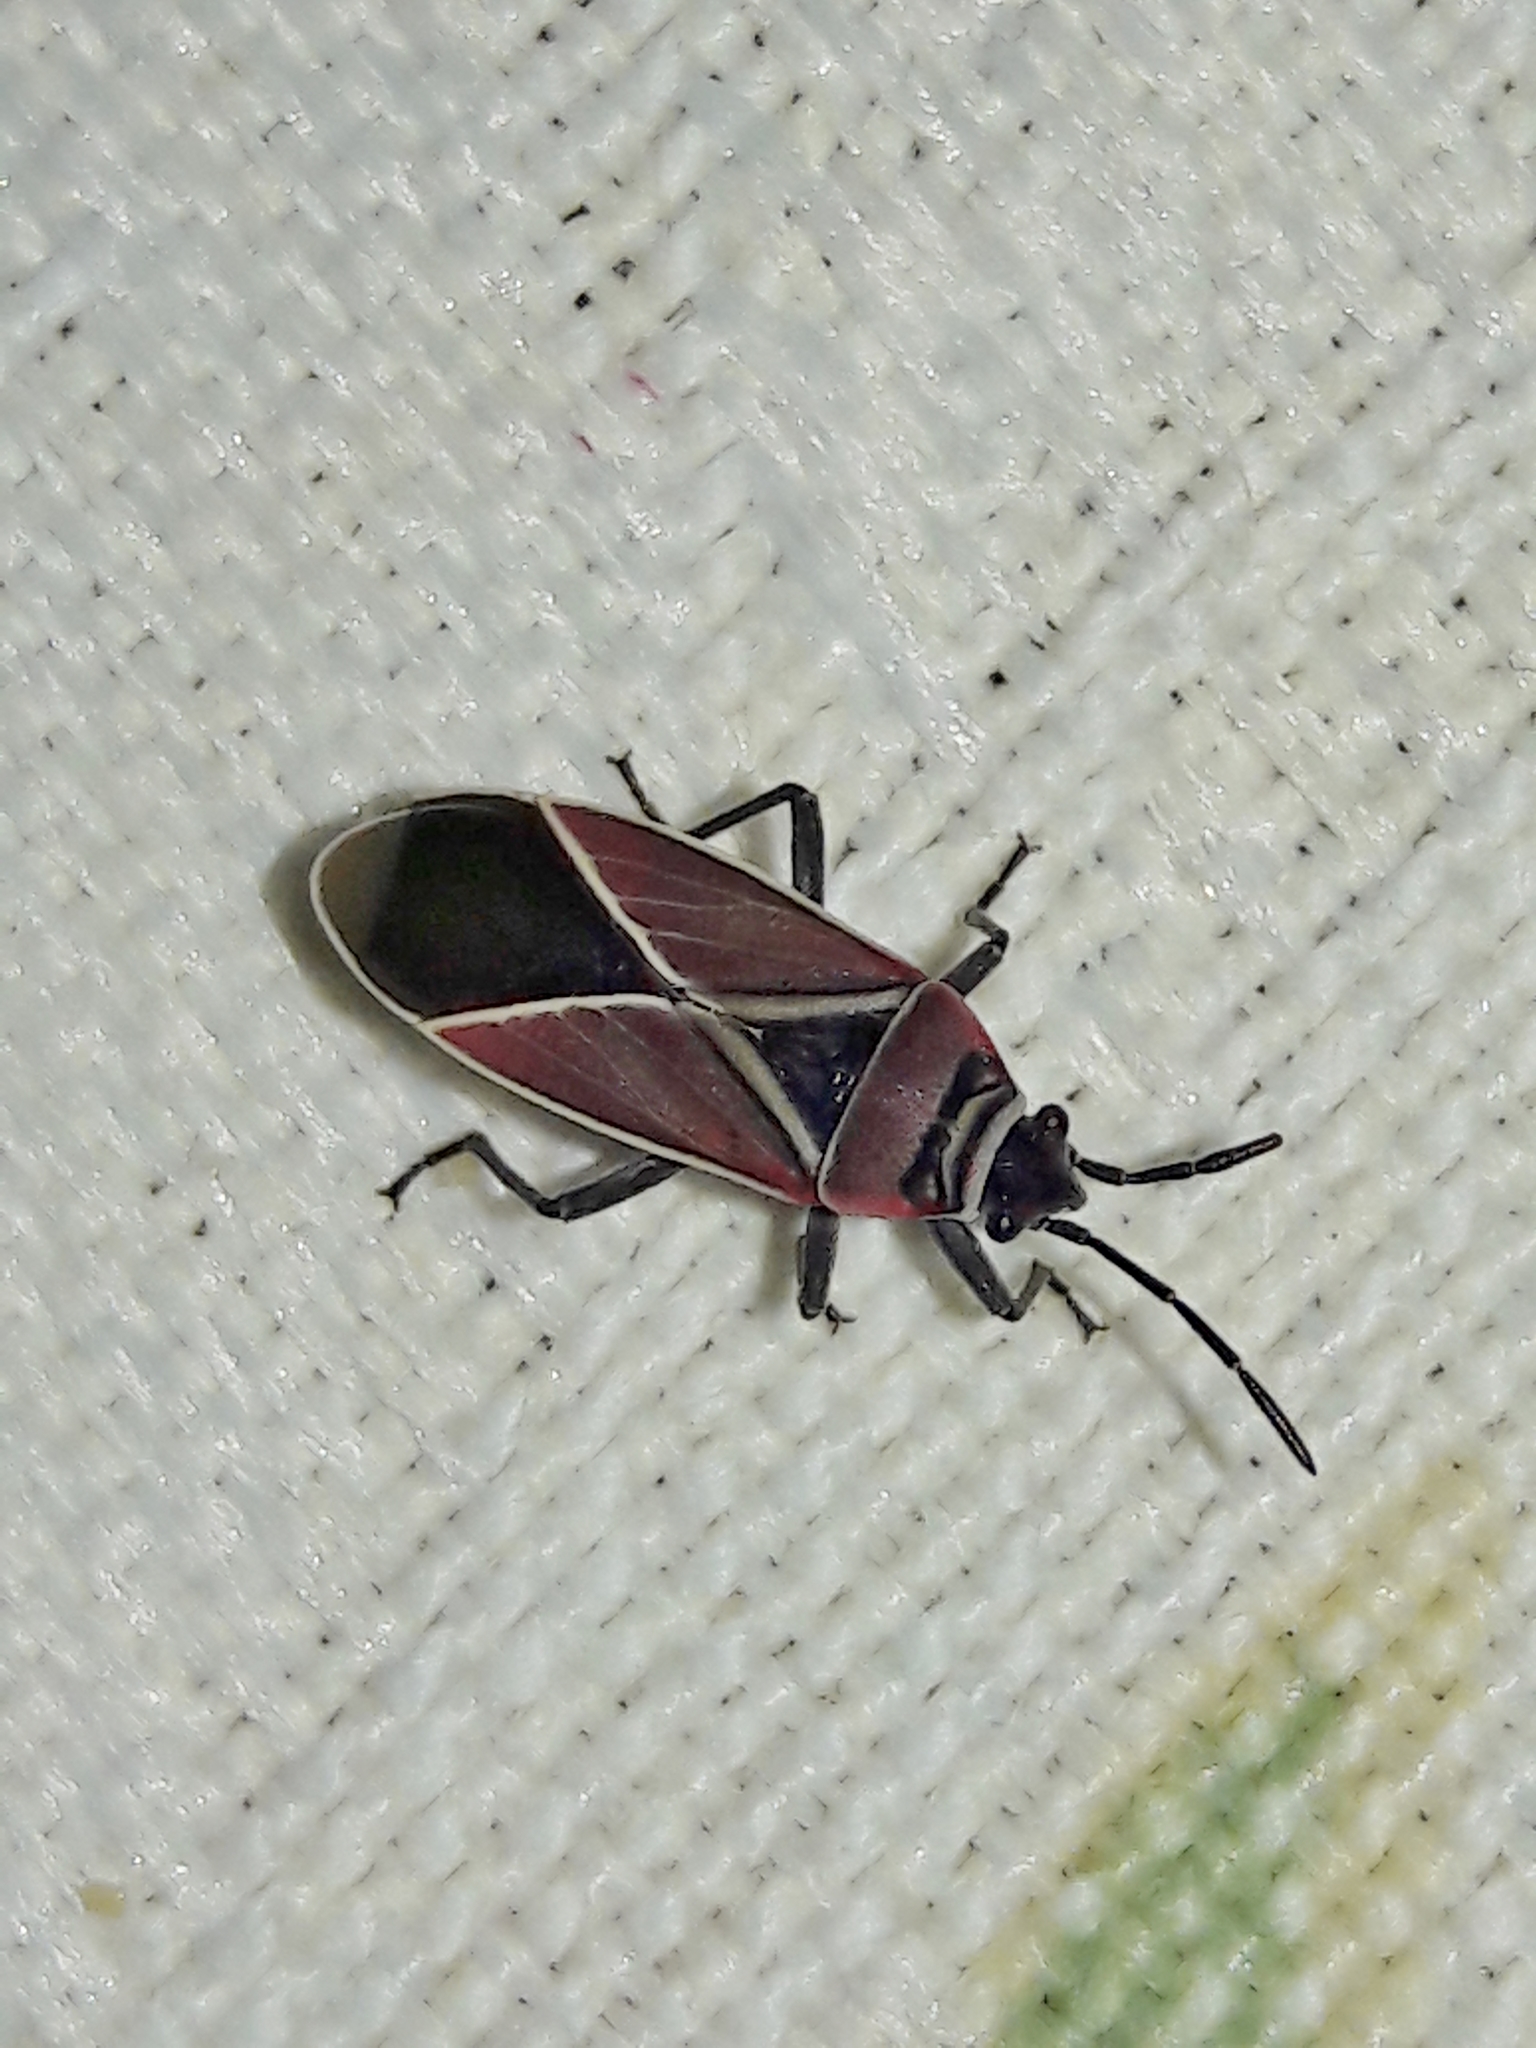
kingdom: Animalia
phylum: Arthropoda
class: Insecta
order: Hemiptera
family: Lygaeidae
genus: Neacoryphus
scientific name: Neacoryphus bicrucis
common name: Lygaeid bug
